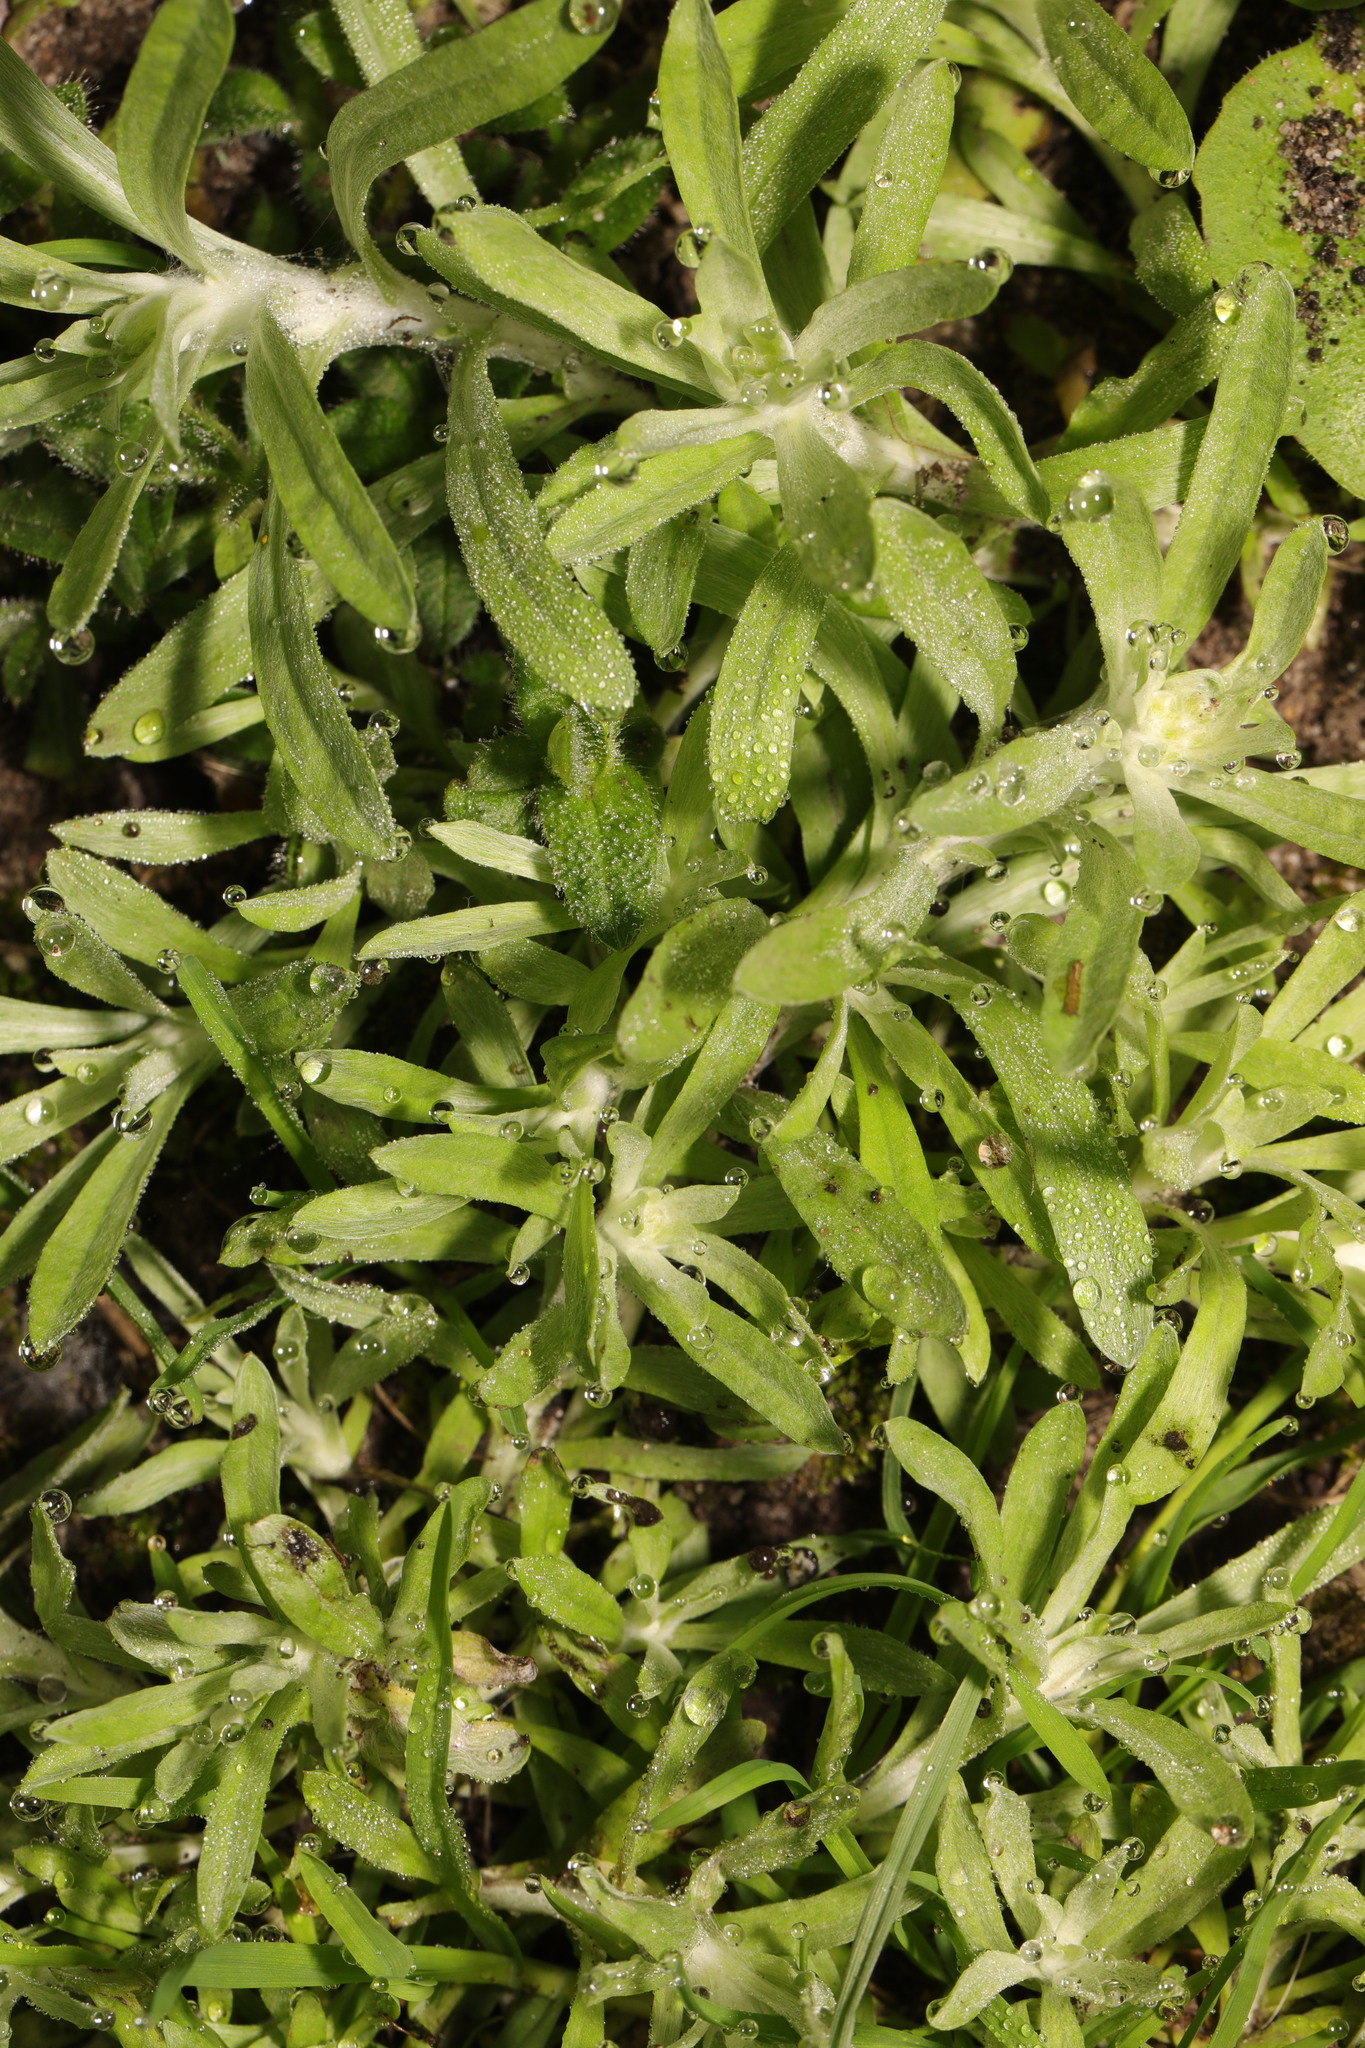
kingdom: Plantae
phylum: Tracheophyta
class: Magnoliopsida
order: Asterales
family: Asteraceae
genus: Gnaphalium
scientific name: Gnaphalium uliginosum
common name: Marsh cudweed
